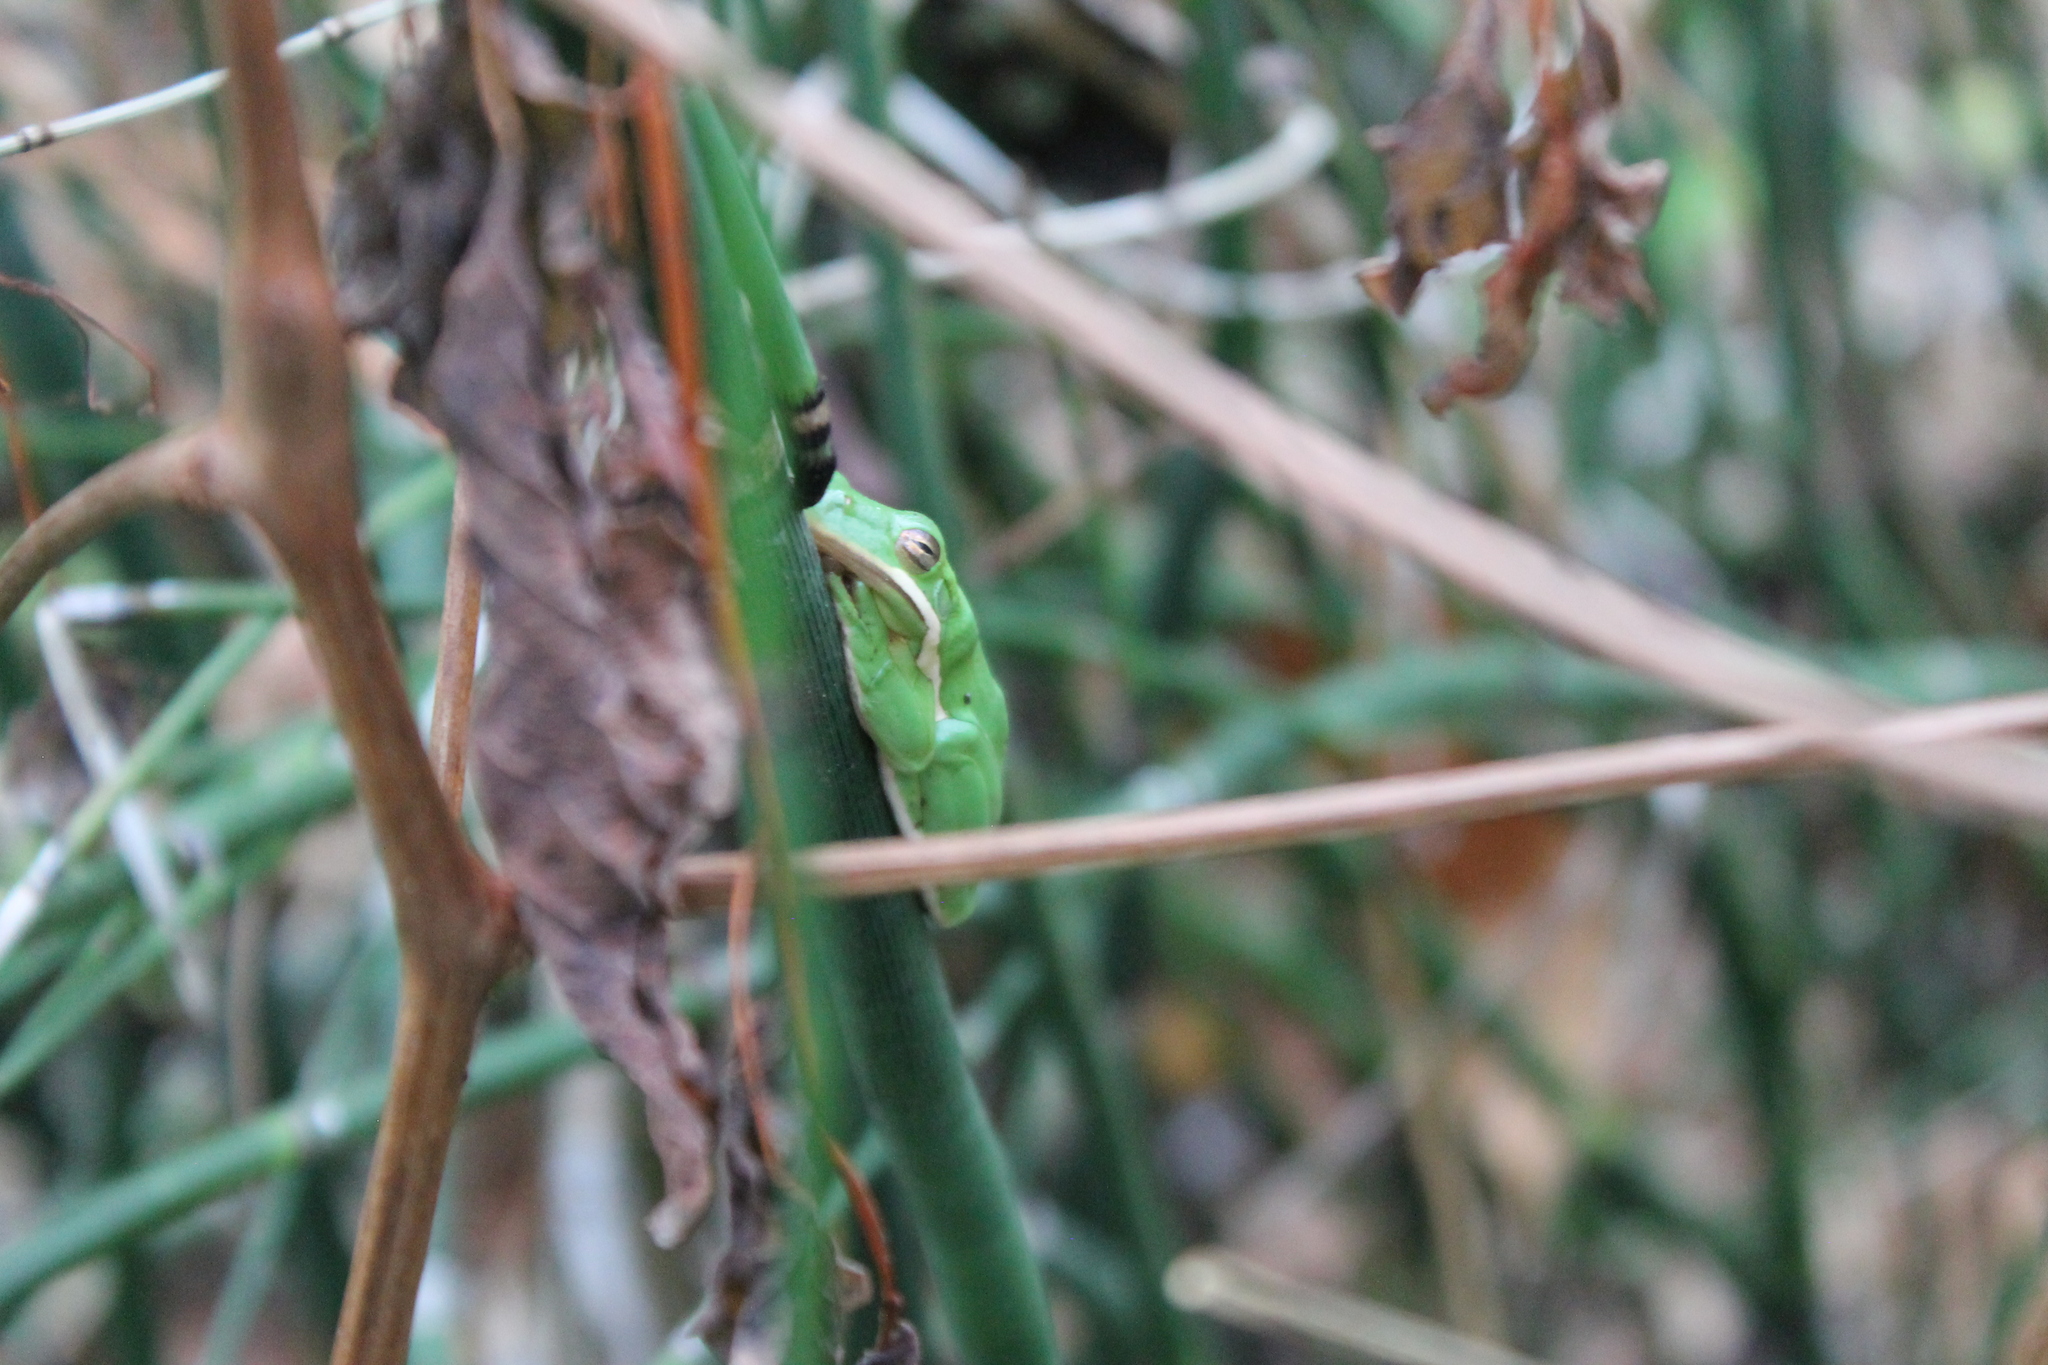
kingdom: Animalia
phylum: Chordata
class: Amphibia
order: Anura
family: Hylidae
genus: Dryophytes
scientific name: Dryophytes cinereus
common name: Green treefrog
